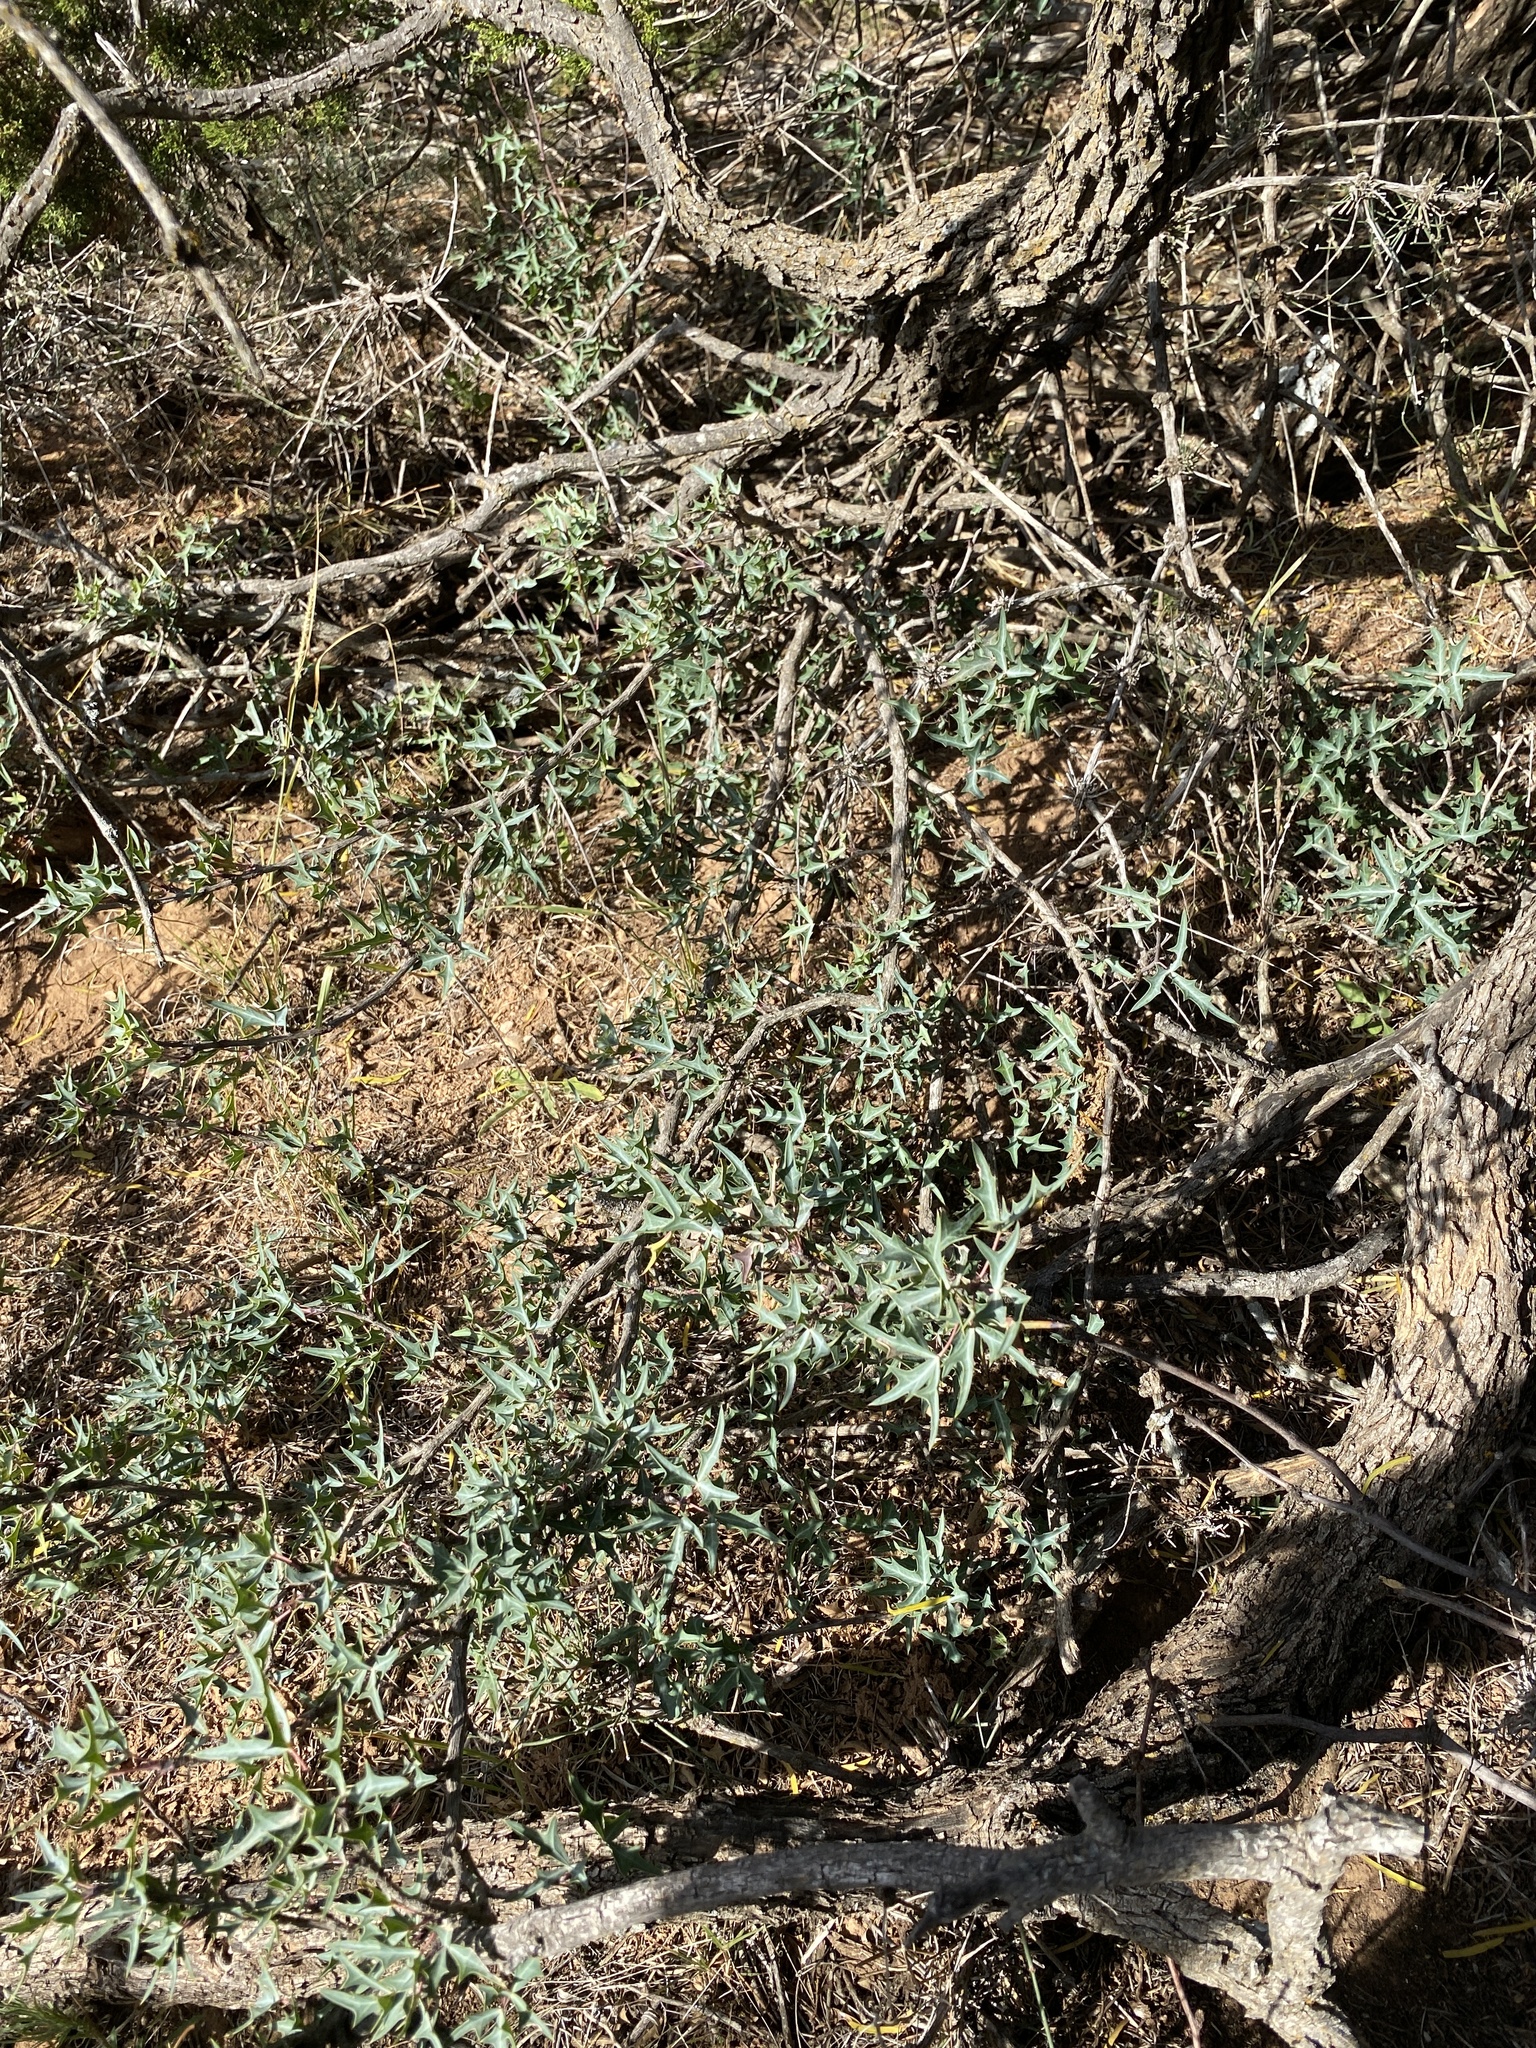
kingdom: Plantae
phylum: Tracheophyta
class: Magnoliopsida
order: Ranunculales
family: Berberidaceae
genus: Alloberberis
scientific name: Alloberberis trifoliolata
